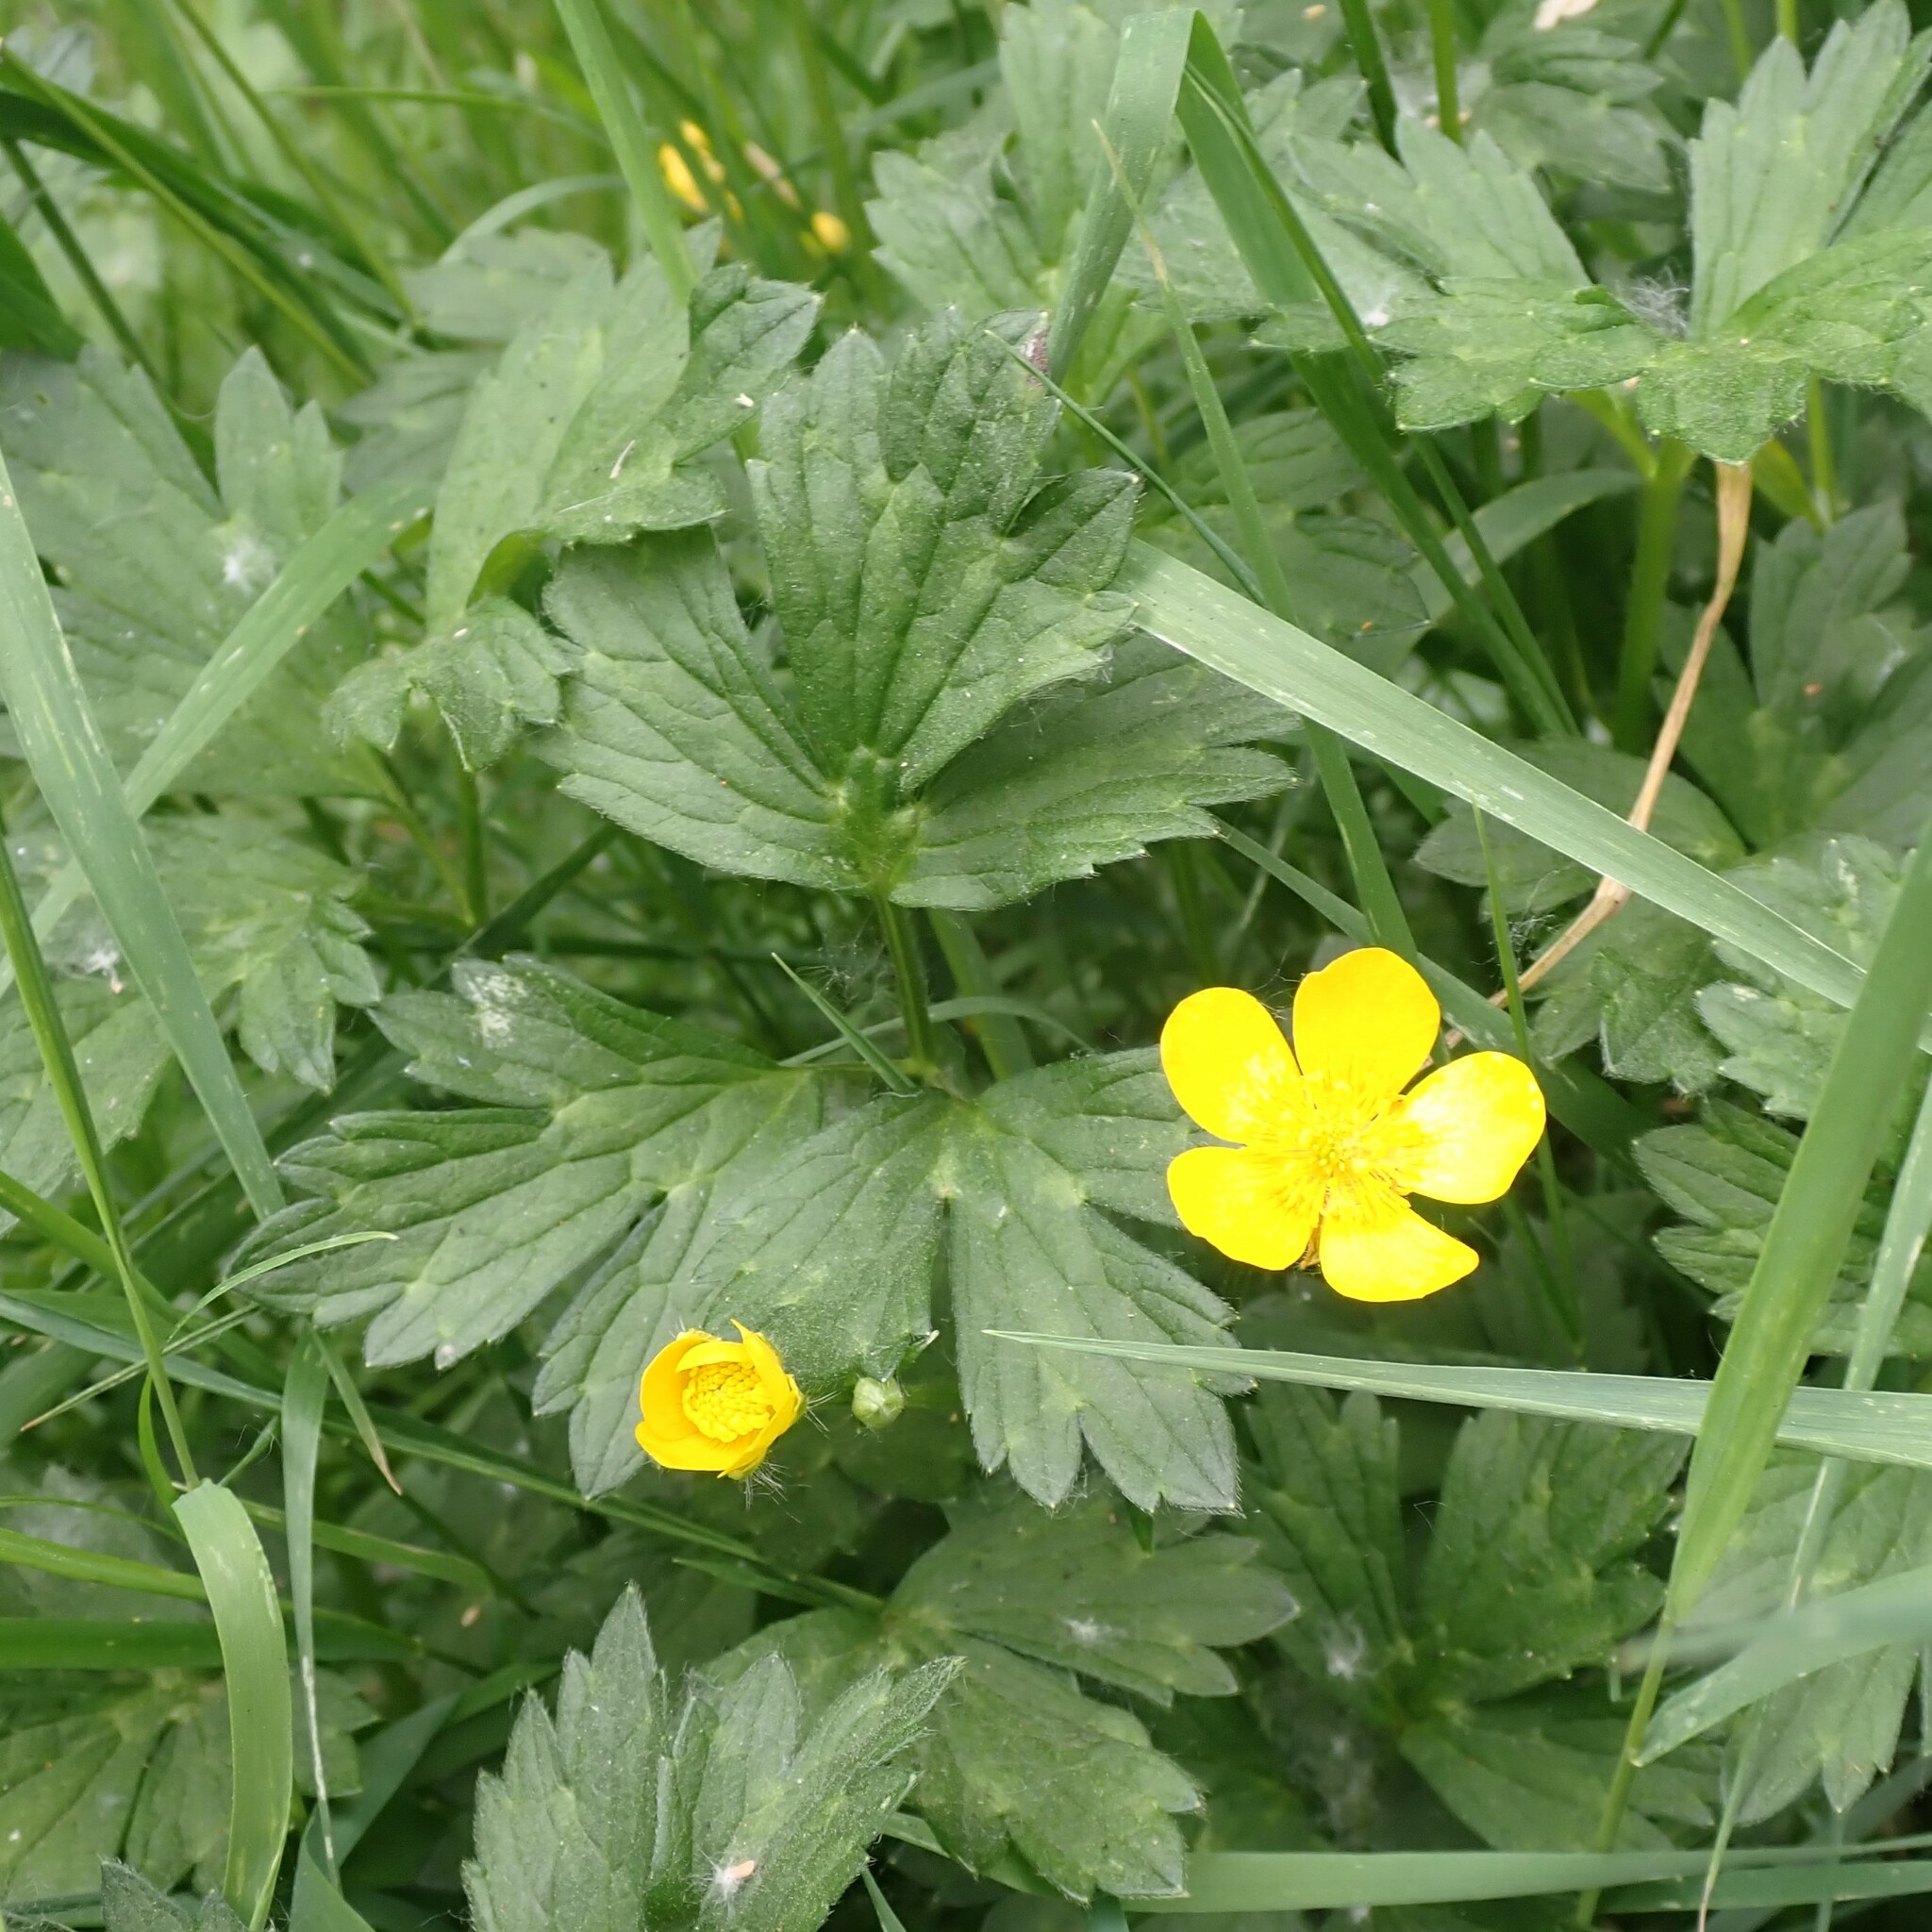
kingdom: Plantae
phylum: Tracheophyta
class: Magnoliopsida
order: Ranunculales
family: Ranunculaceae
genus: Ranunculus
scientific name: Ranunculus repens
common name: Creeping buttercup
